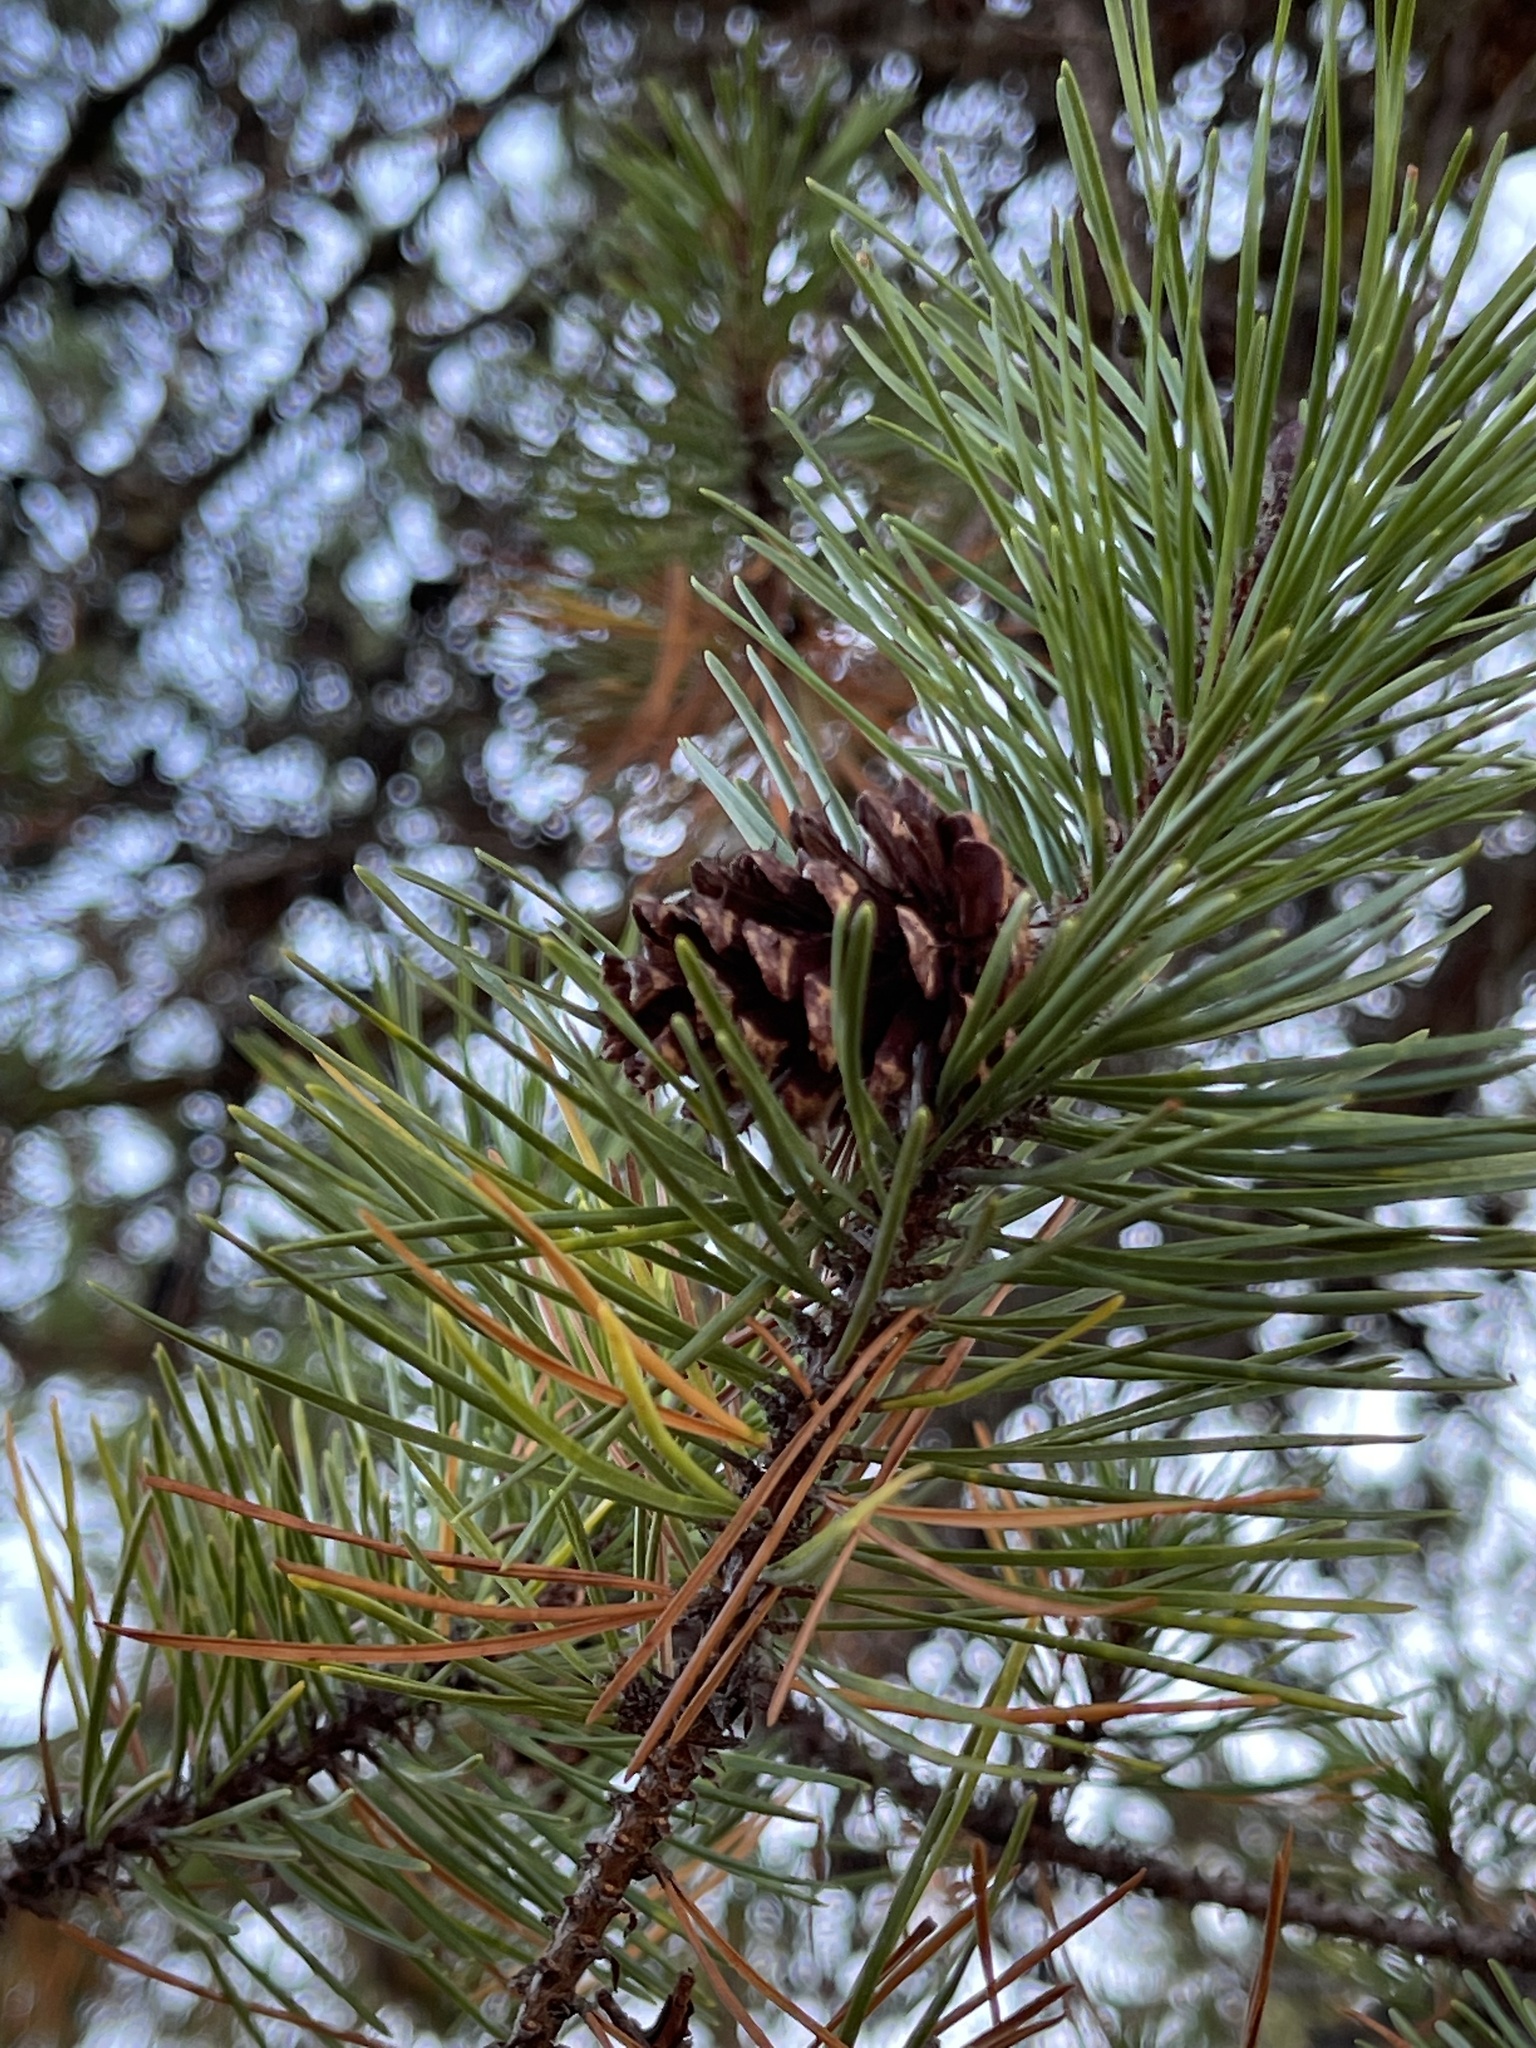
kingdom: Plantae
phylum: Tracheophyta
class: Pinopsida
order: Pinales
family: Pinaceae
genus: Pinus
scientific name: Pinus contorta
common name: Lodgepole pine
